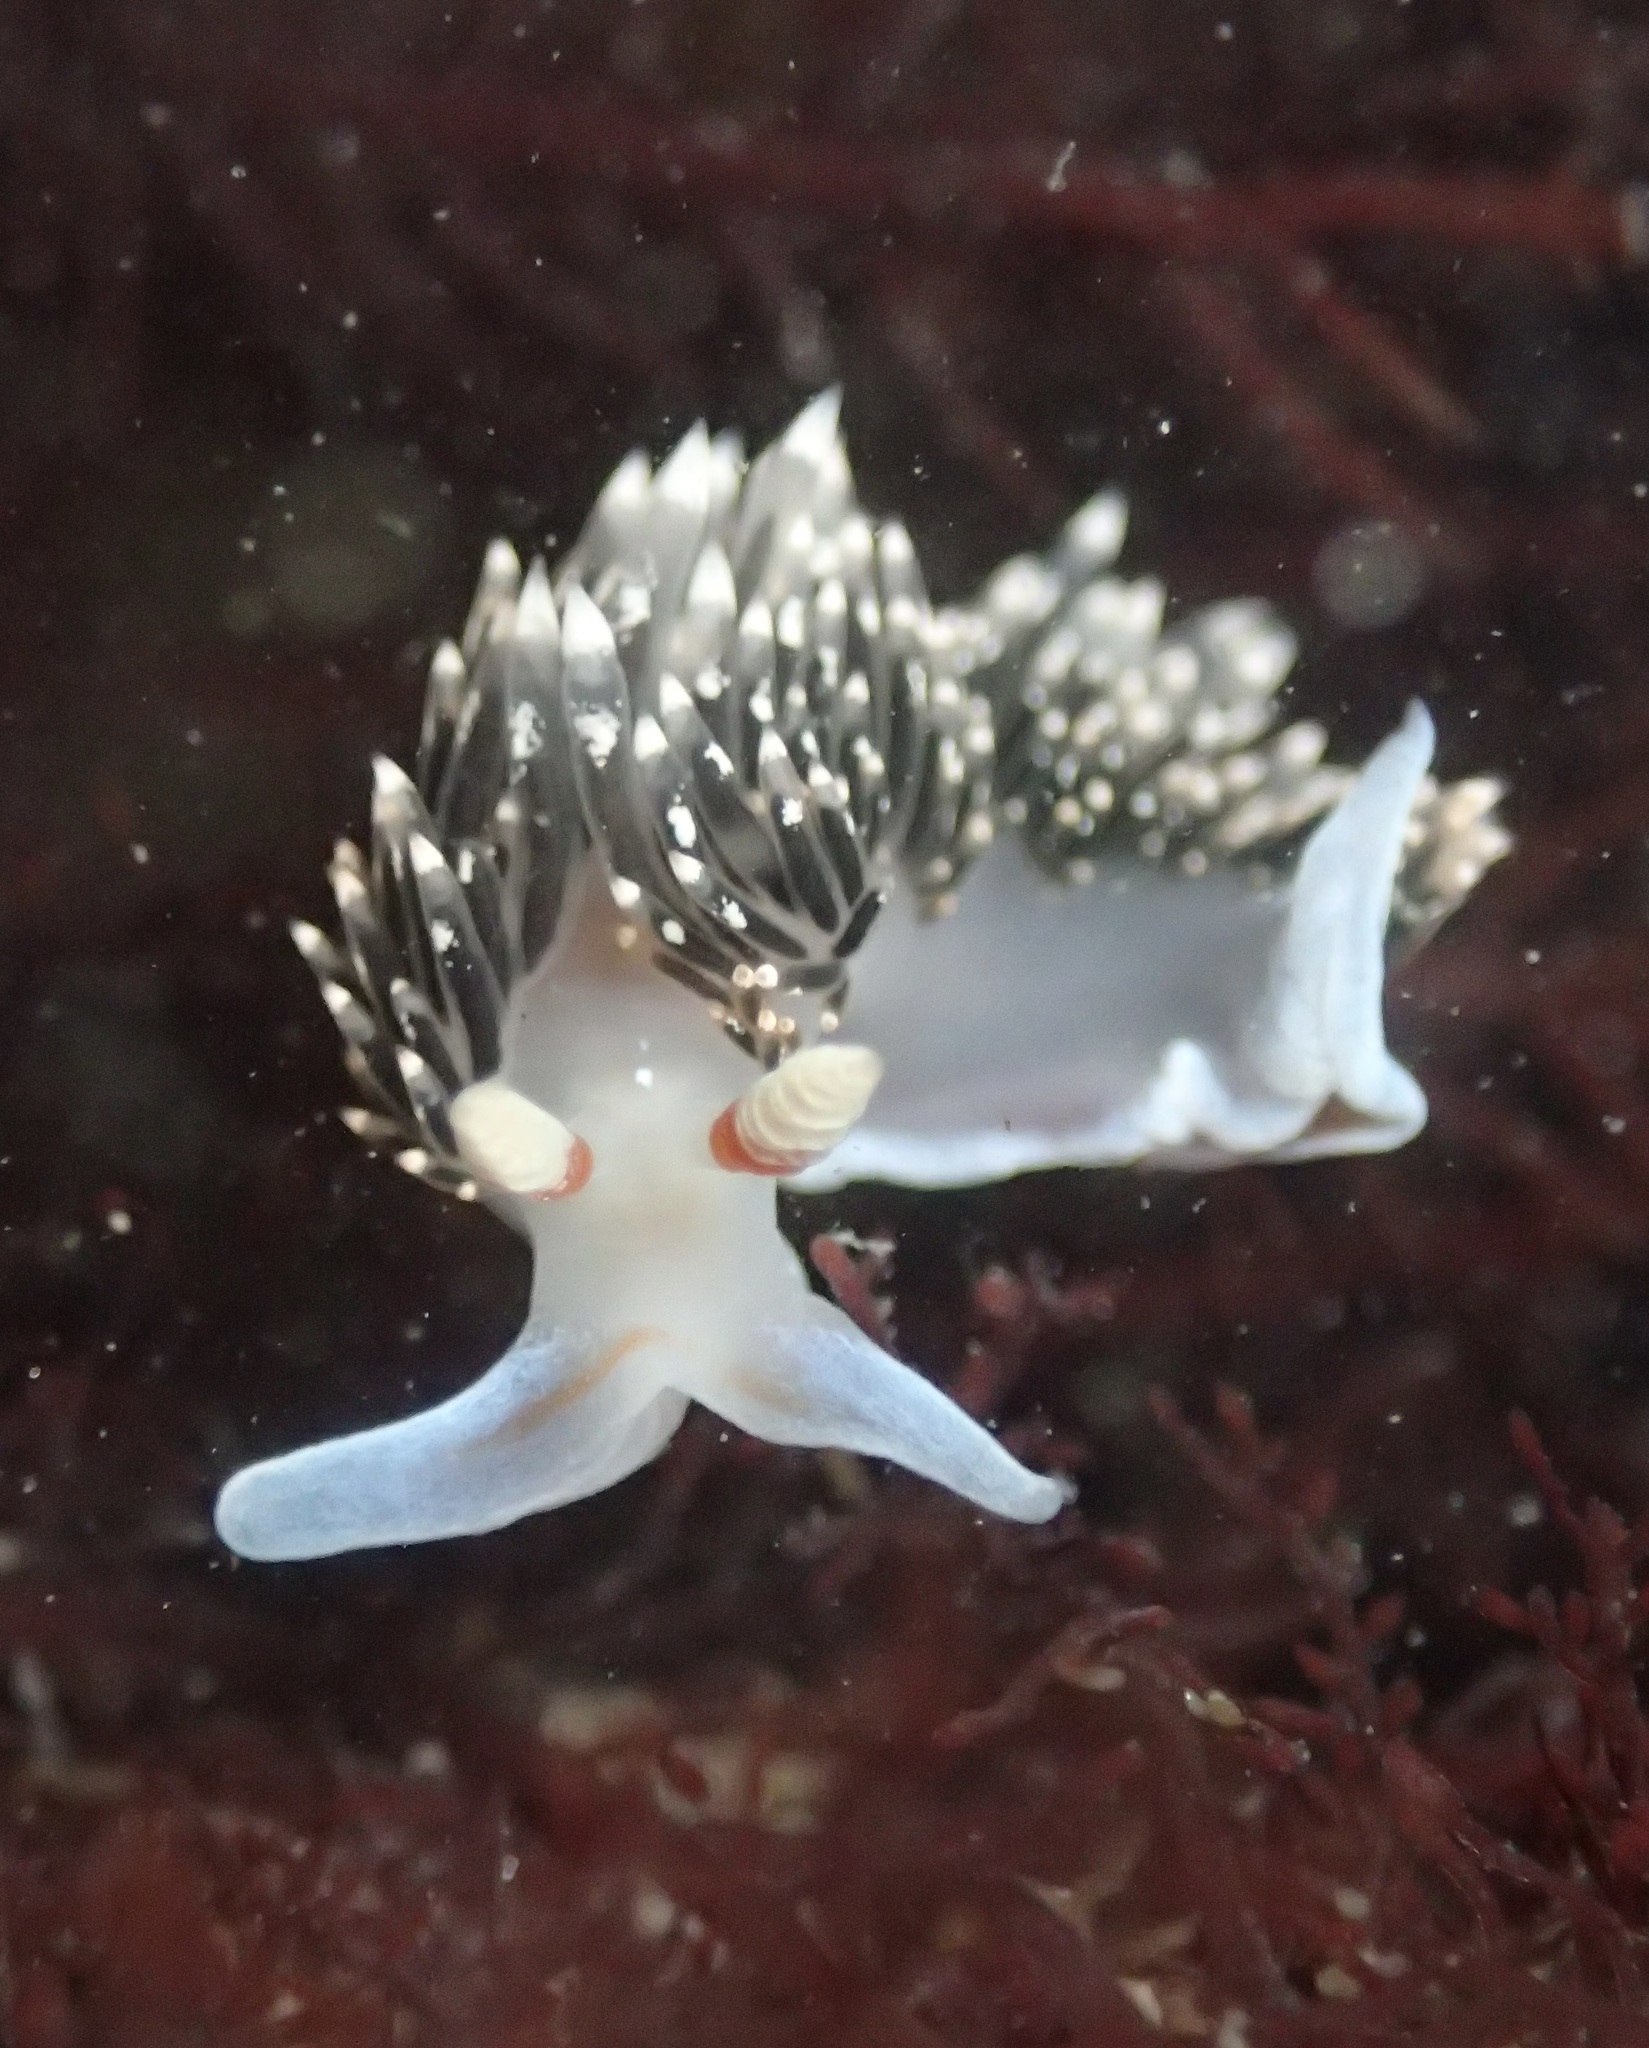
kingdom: Animalia
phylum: Mollusca
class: Gastropoda
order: Nudibranchia
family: Facelinidae
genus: Phidiana
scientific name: Phidiana hiltoni
